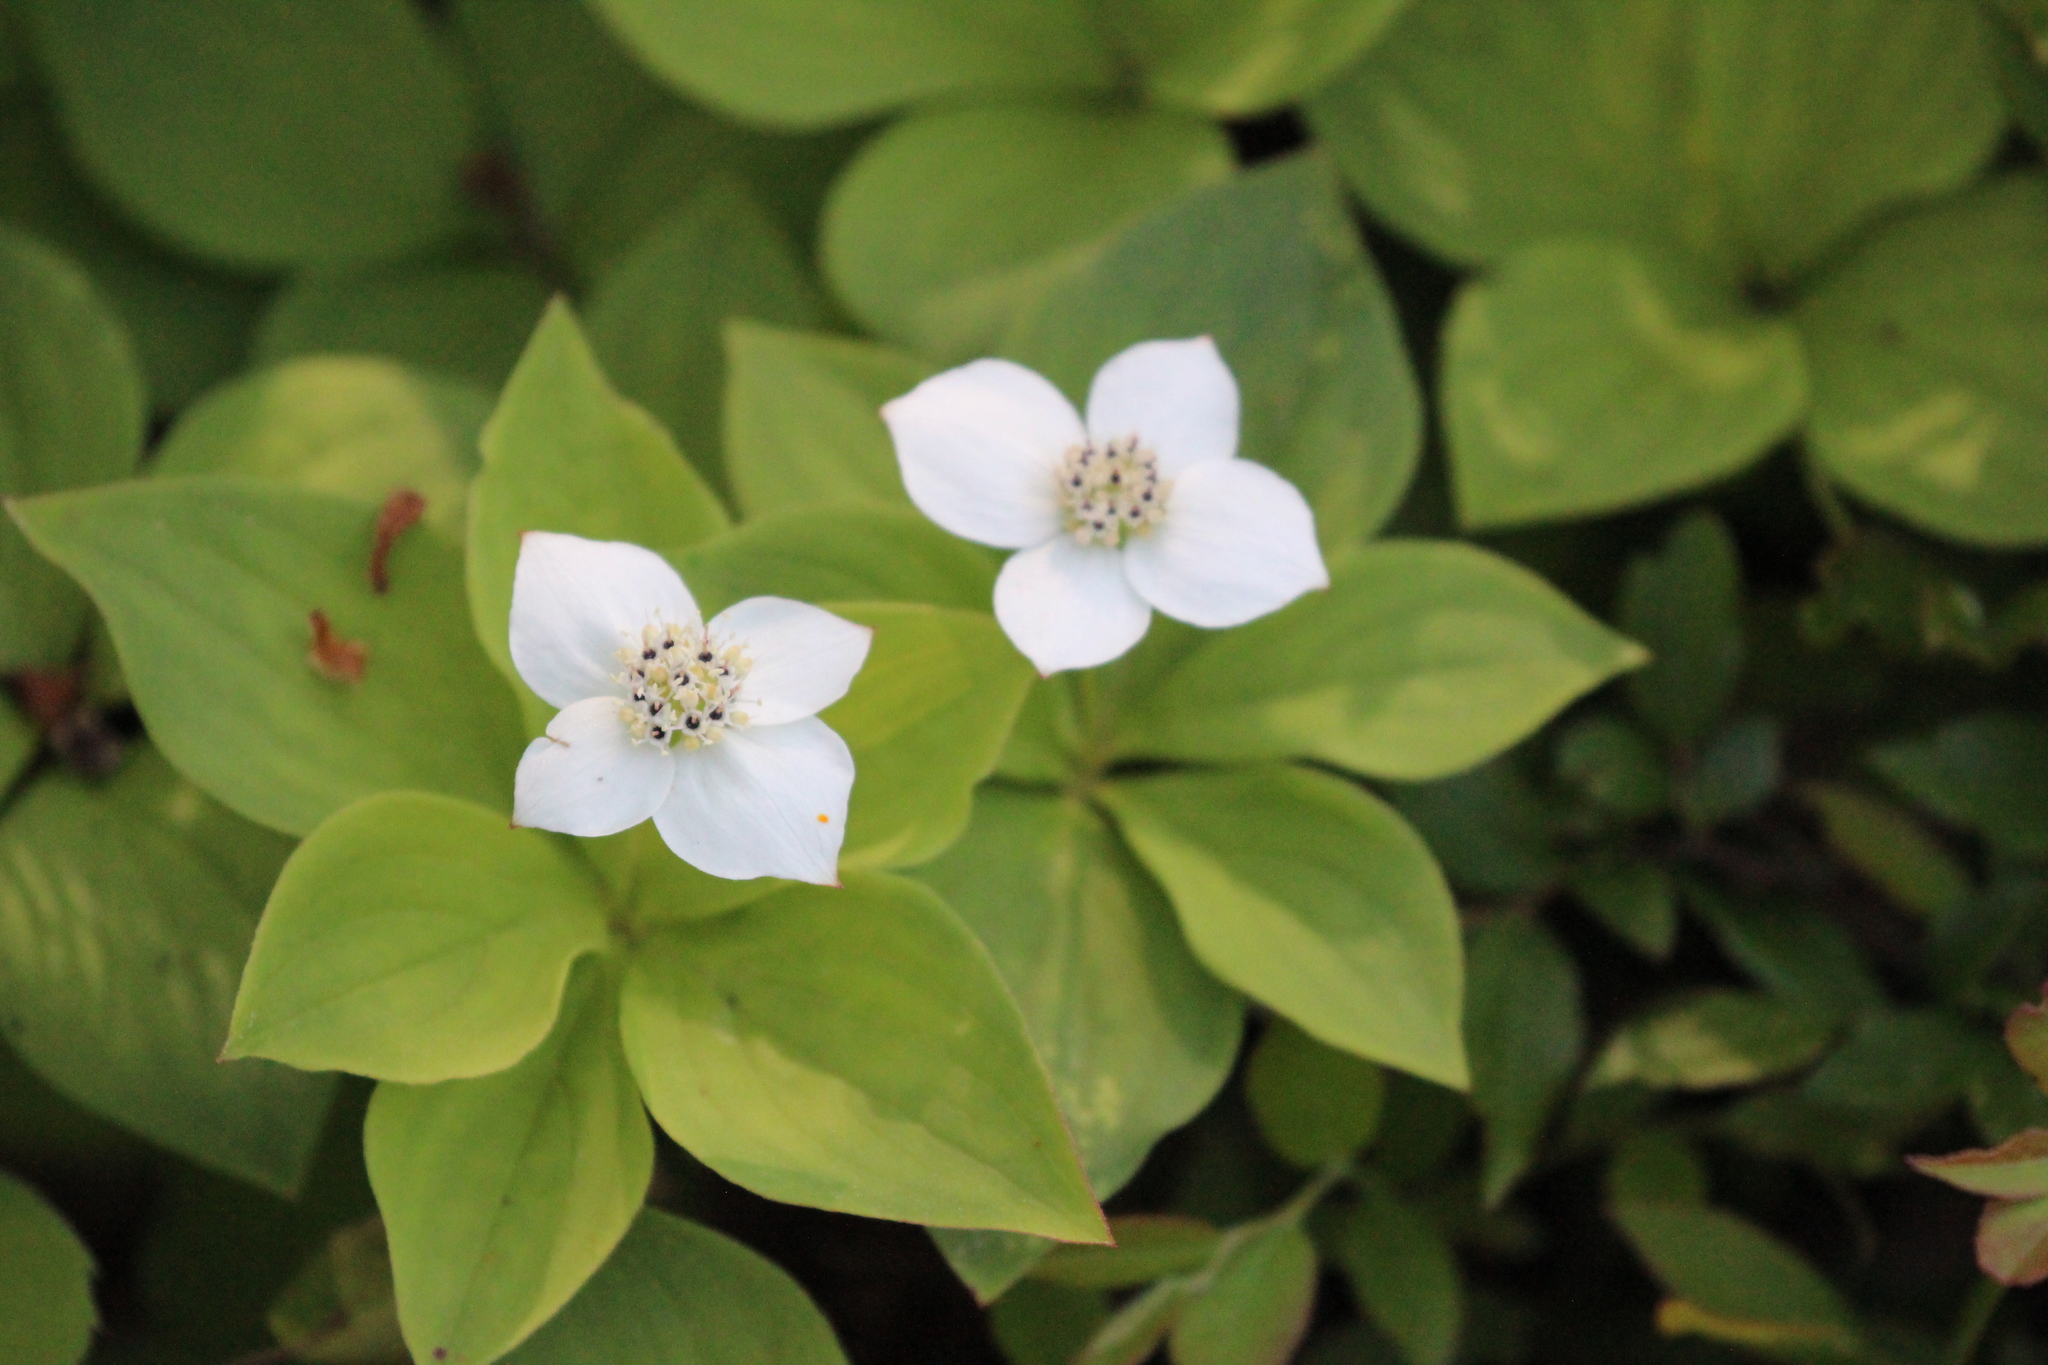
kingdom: Plantae
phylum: Tracheophyta
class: Magnoliopsida
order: Cornales
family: Cornaceae
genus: Cornus
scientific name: Cornus canadensis
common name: Creeping dogwood
